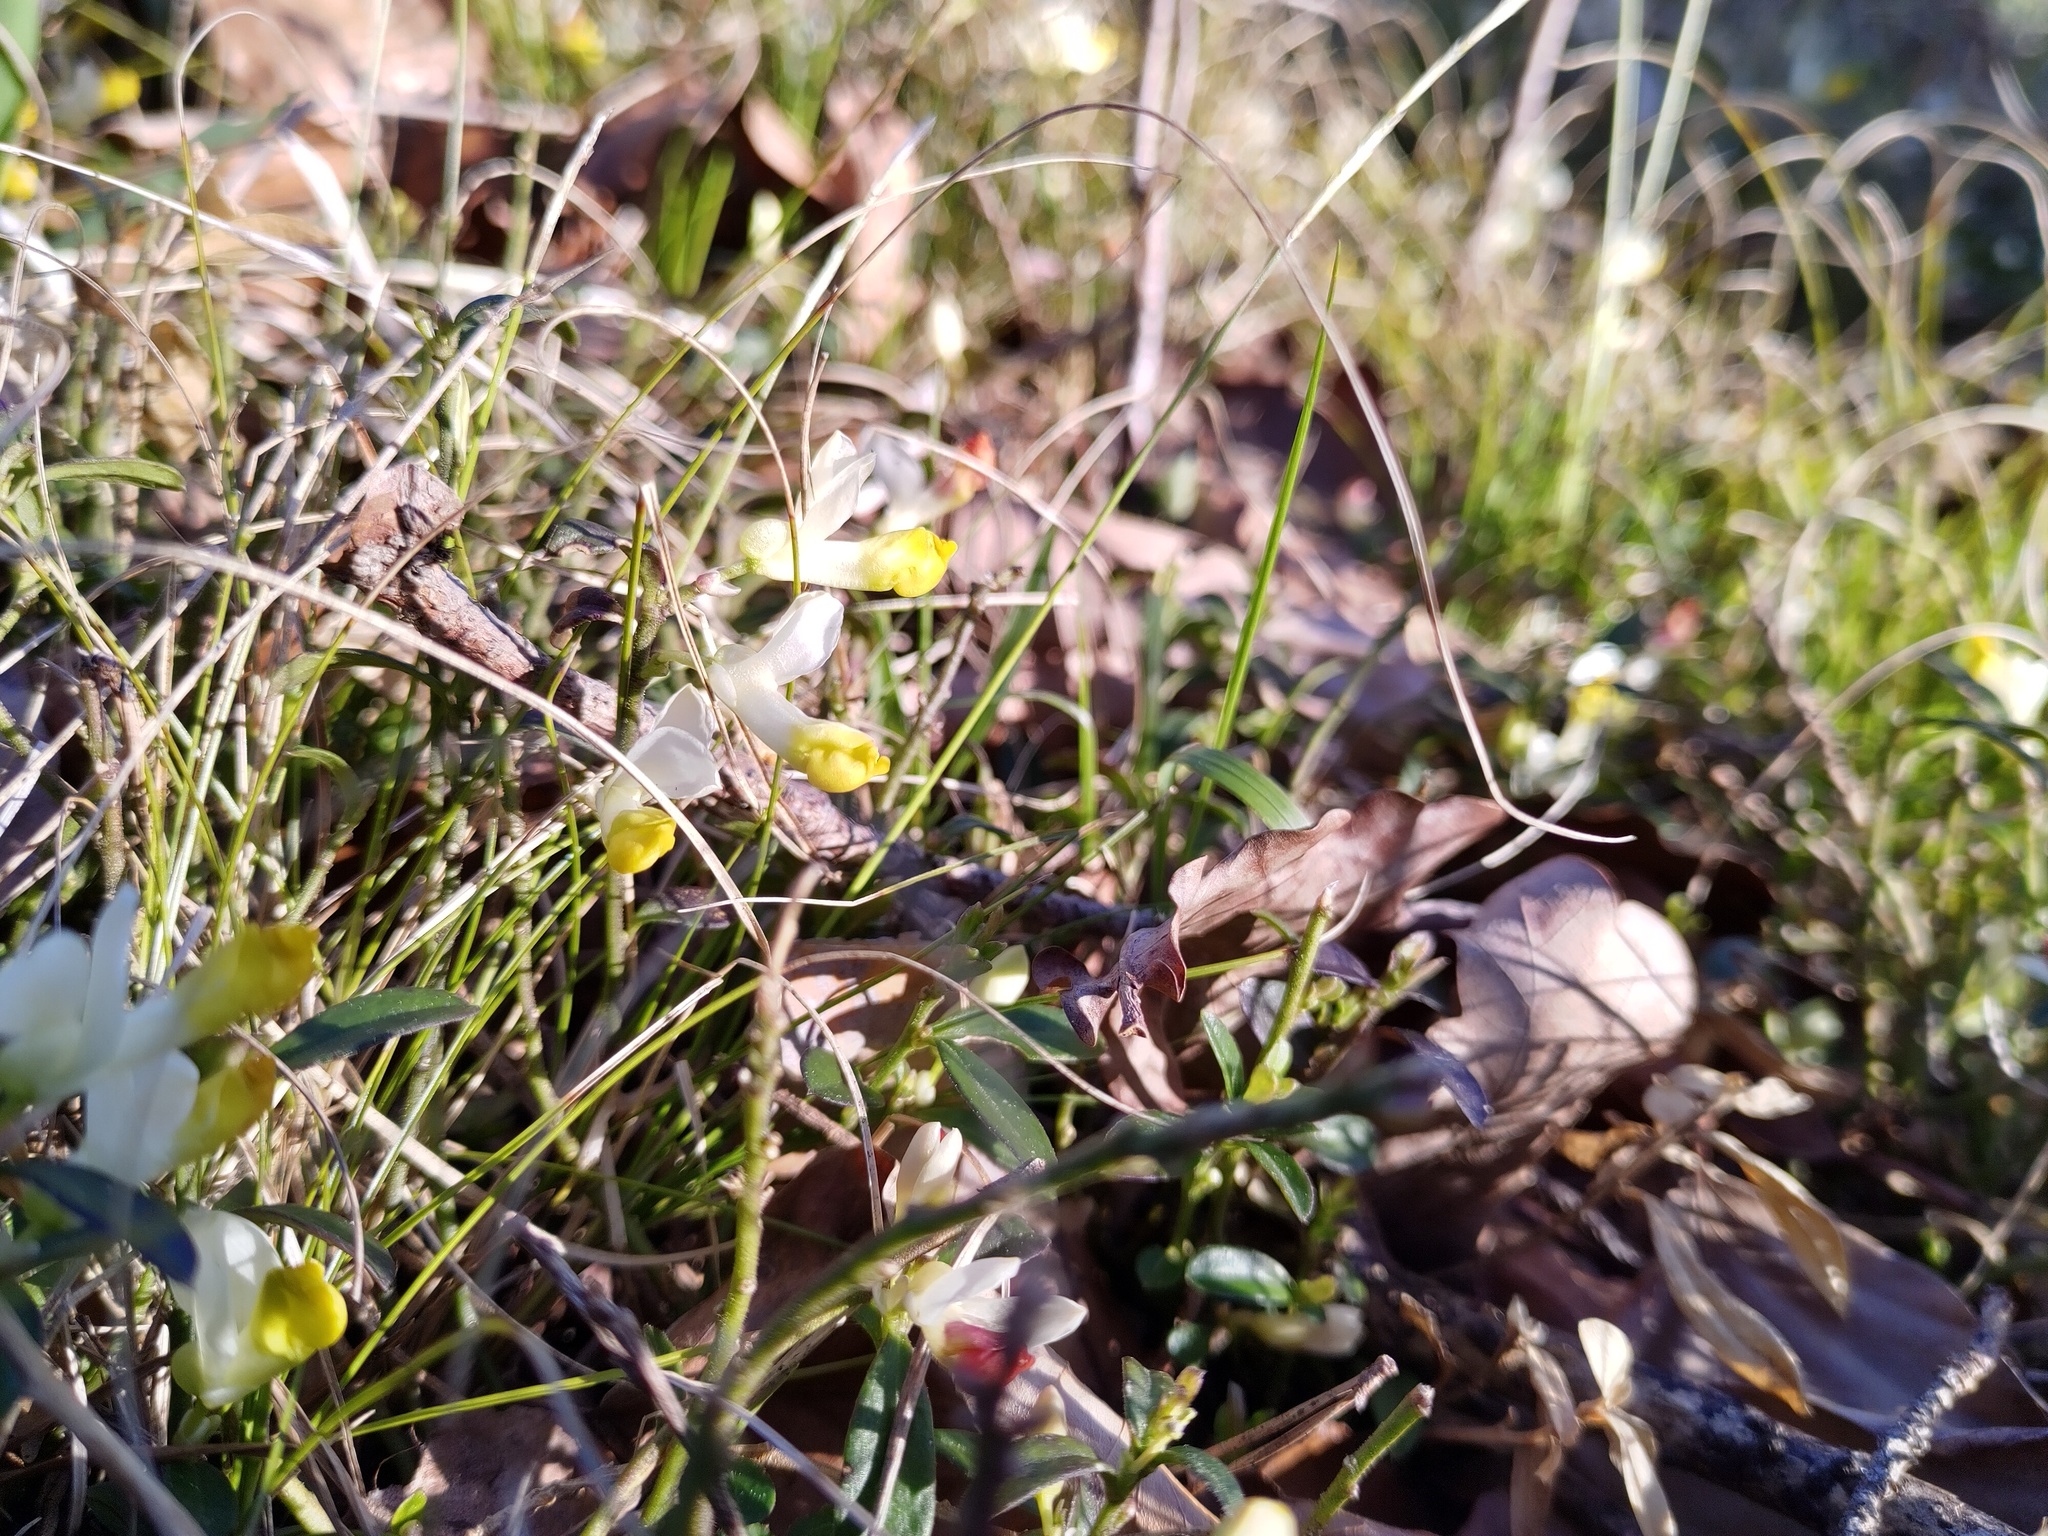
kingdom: Plantae
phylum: Tracheophyta
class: Magnoliopsida
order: Fabales
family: Polygalaceae
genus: Polygaloides
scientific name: Polygaloides chamaebuxus
